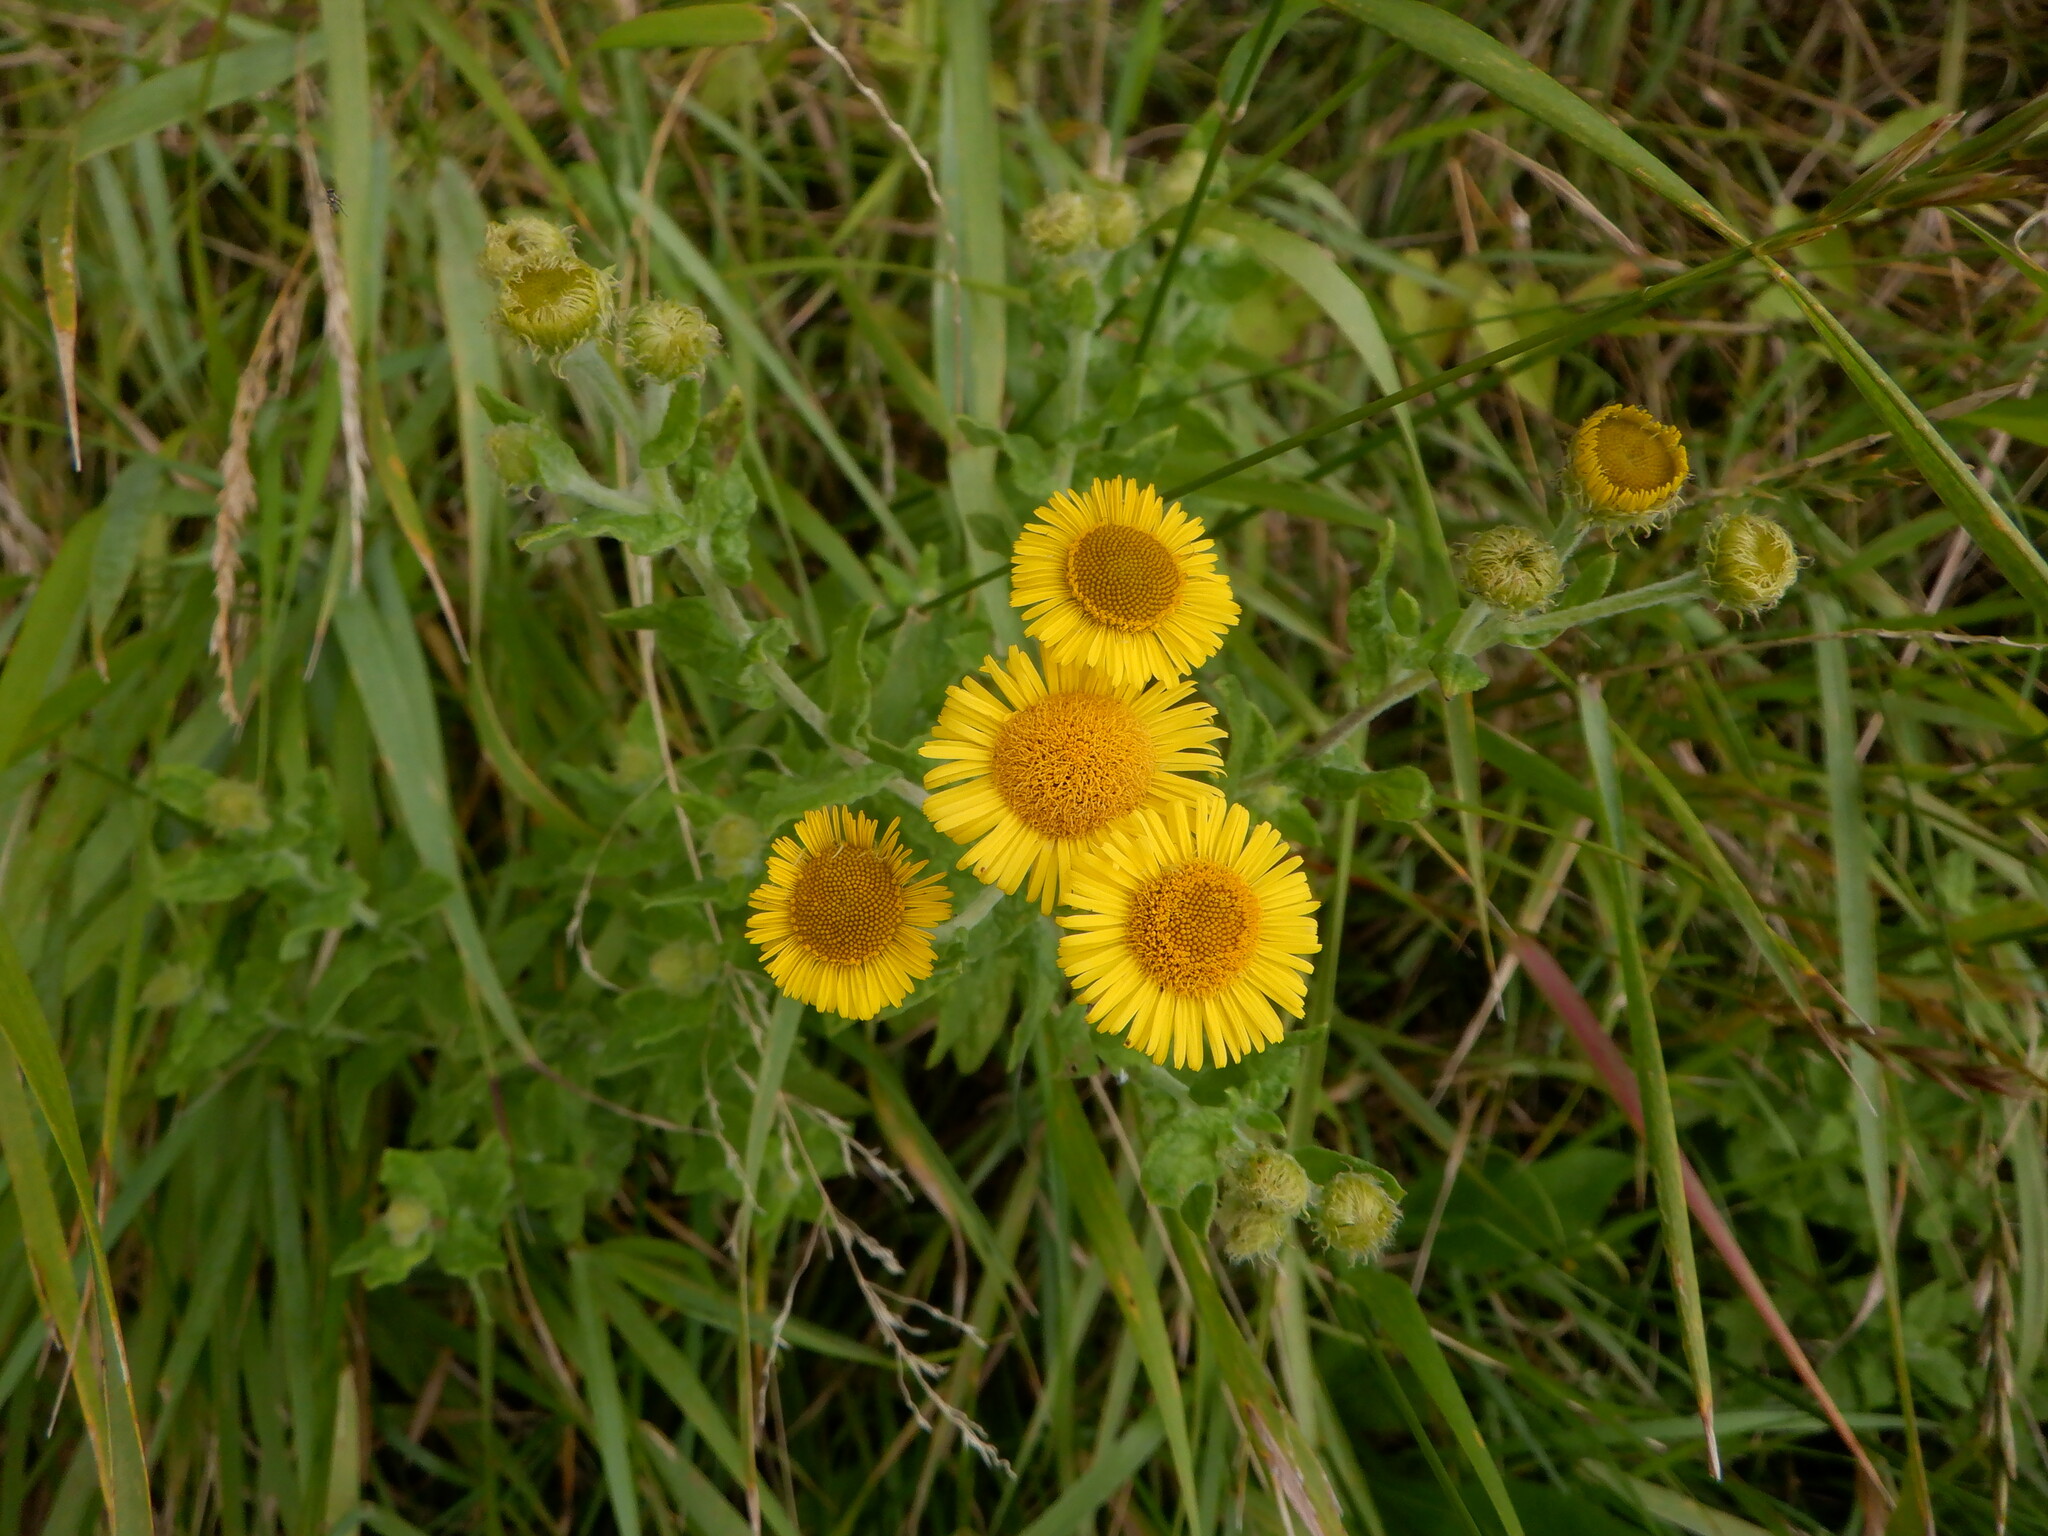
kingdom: Plantae
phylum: Tracheophyta
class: Magnoliopsida
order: Asterales
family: Asteraceae
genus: Pulicaria
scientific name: Pulicaria dysenterica
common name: Common fleabane
